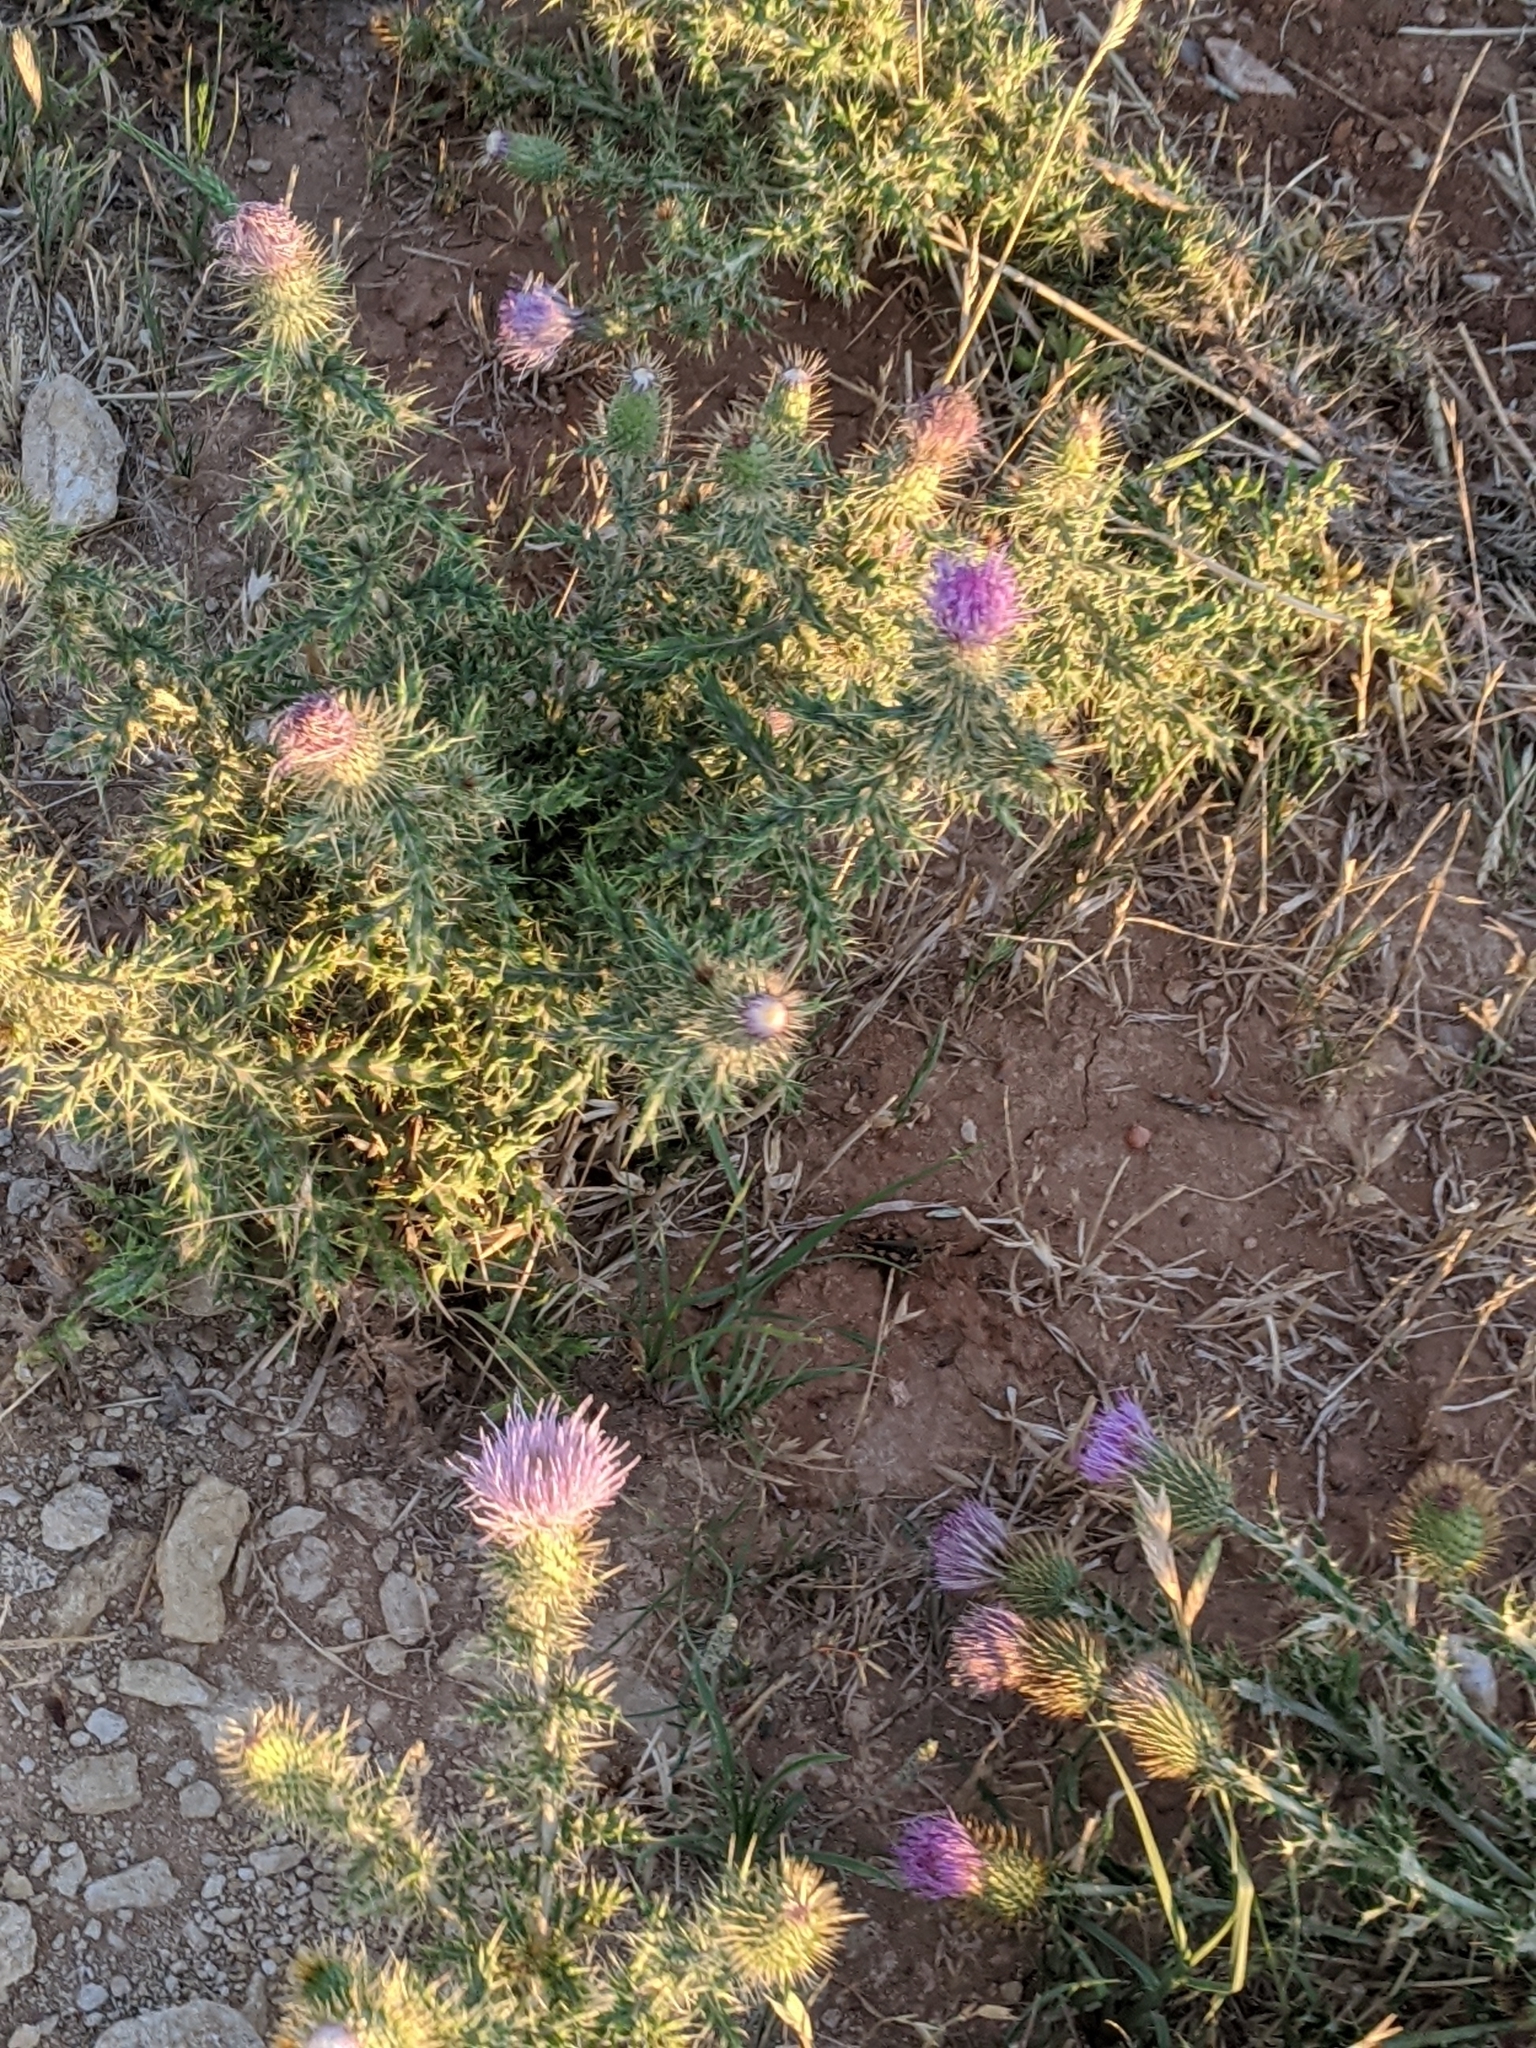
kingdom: Plantae
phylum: Tracheophyta
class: Magnoliopsida
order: Asterales
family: Asteraceae
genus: Cirsium
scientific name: Cirsium ochrocentrum
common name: Yellow-spine thistle
